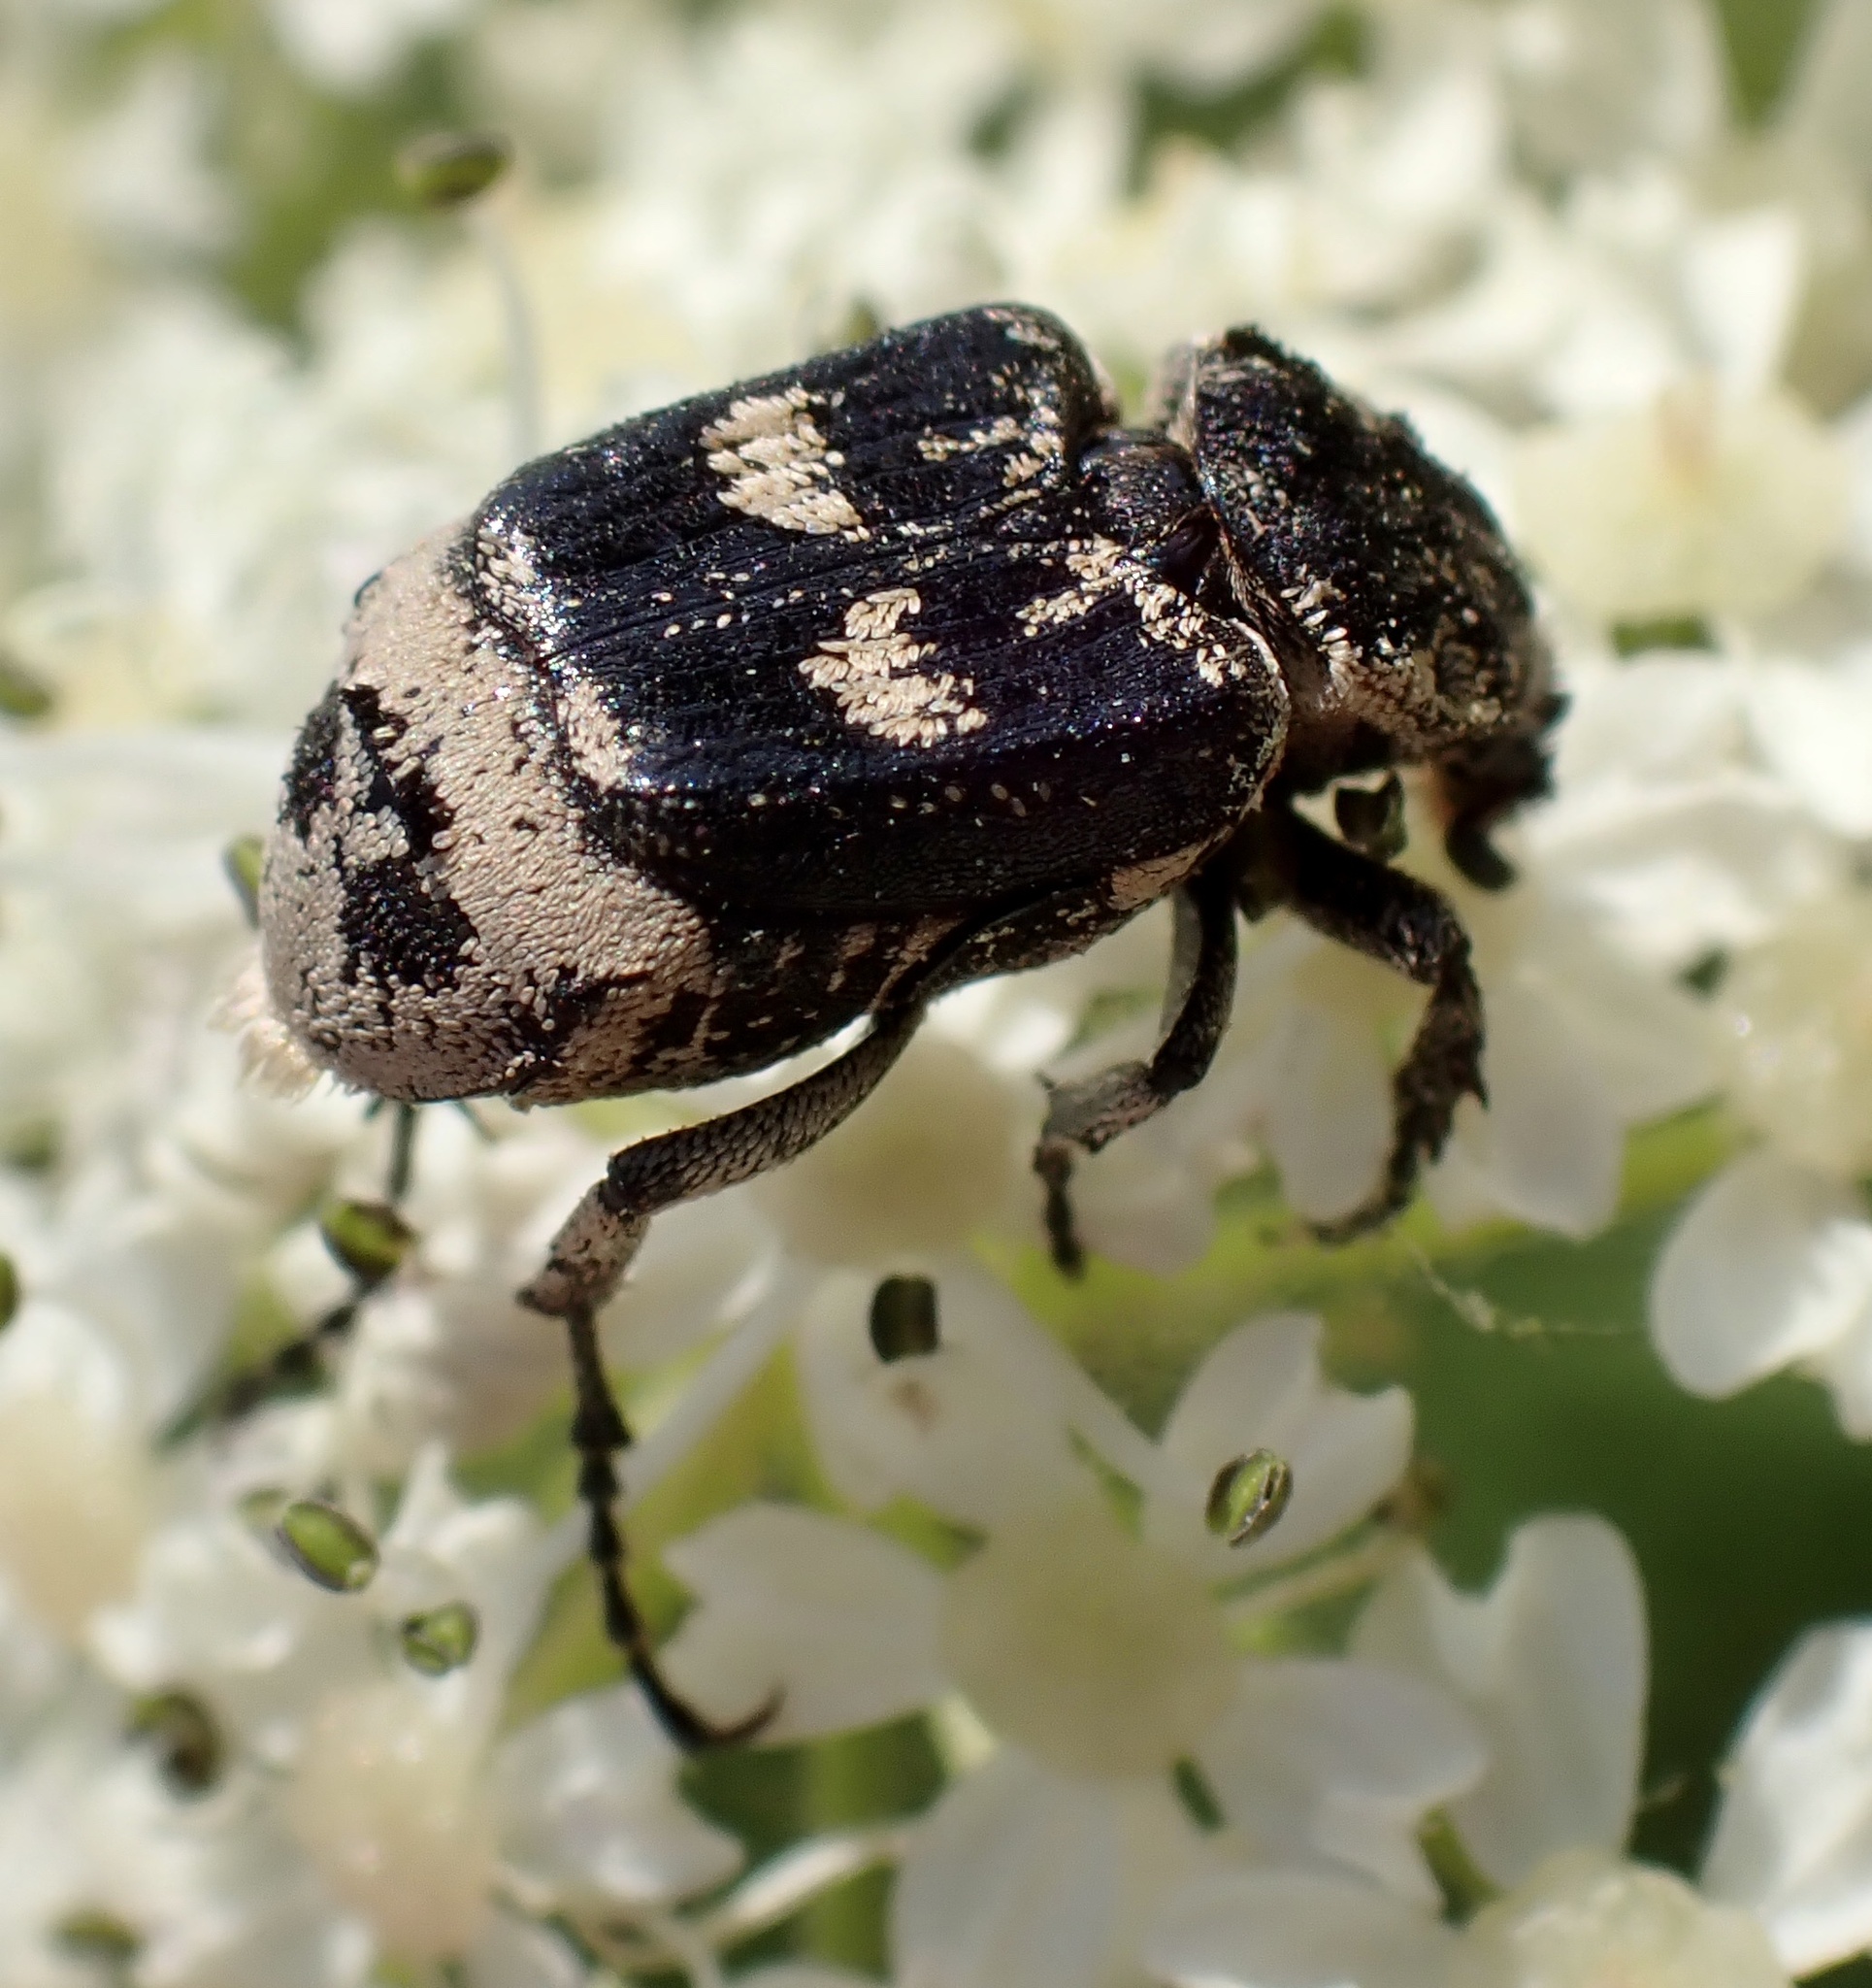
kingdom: Animalia
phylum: Arthropoda
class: Insecta
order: Coleoptera
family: Scarabaeidae
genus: Valgus
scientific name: Valgus hemipterus
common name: Bug flower chafer
